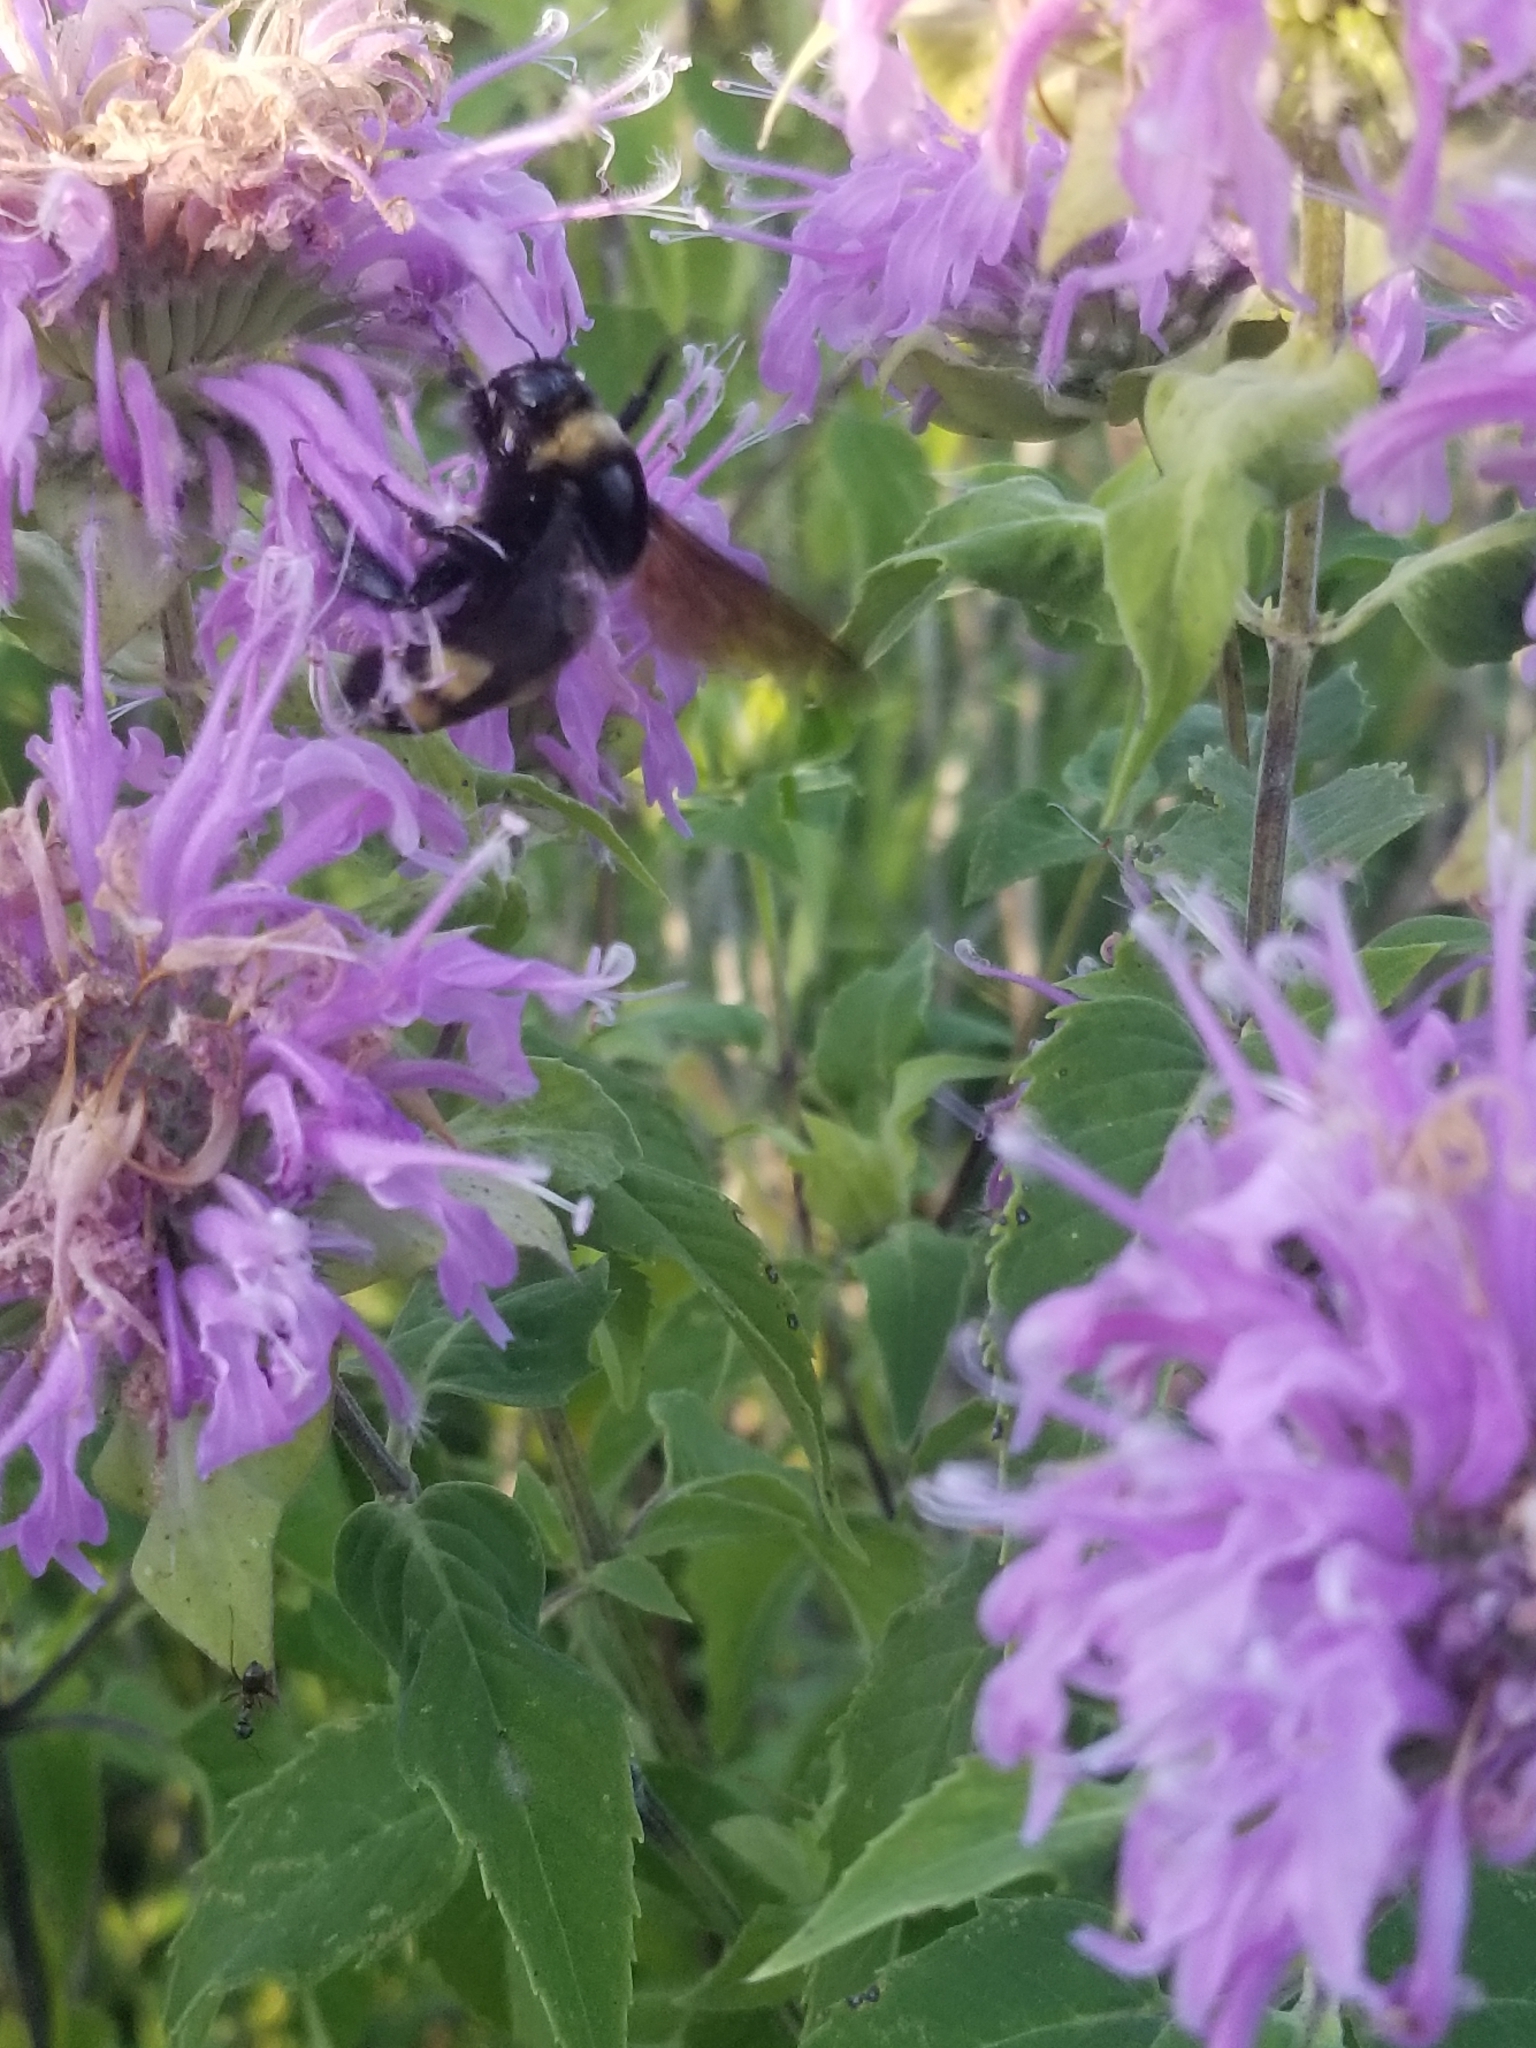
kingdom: Animalia
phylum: Arthropoda
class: Insecta
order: Hymenoptera
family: Apidae
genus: Bombus
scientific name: Bombus auricomus
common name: Black and gold bumble bee
